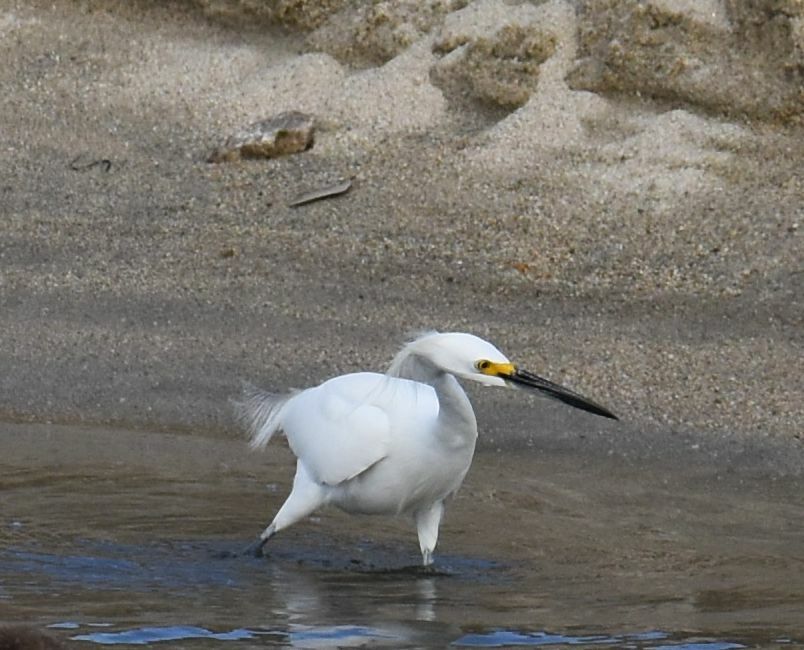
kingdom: Animalia
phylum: Chordata
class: Aves
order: Pelecaniformes
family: Ardeidae
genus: Egretta
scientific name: Egretta thula
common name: Snowy egret
